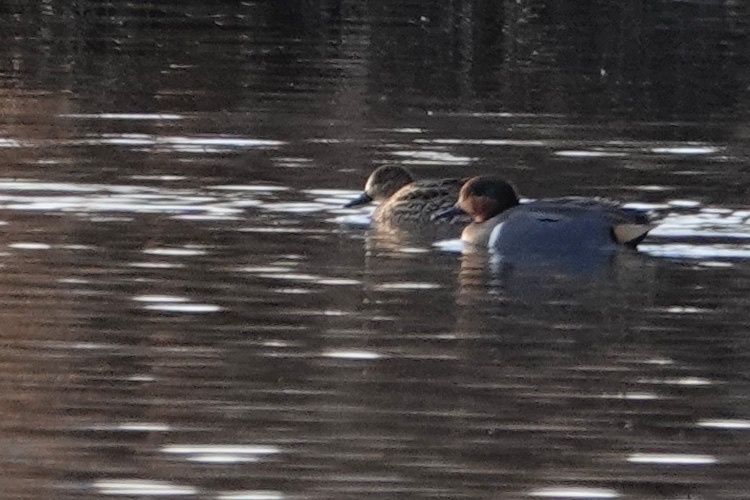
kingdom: Animalia
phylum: Chordata
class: Aves
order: Anseriformes
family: Anatidae
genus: Anas
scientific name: Anas crecca
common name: Eurasian teal
